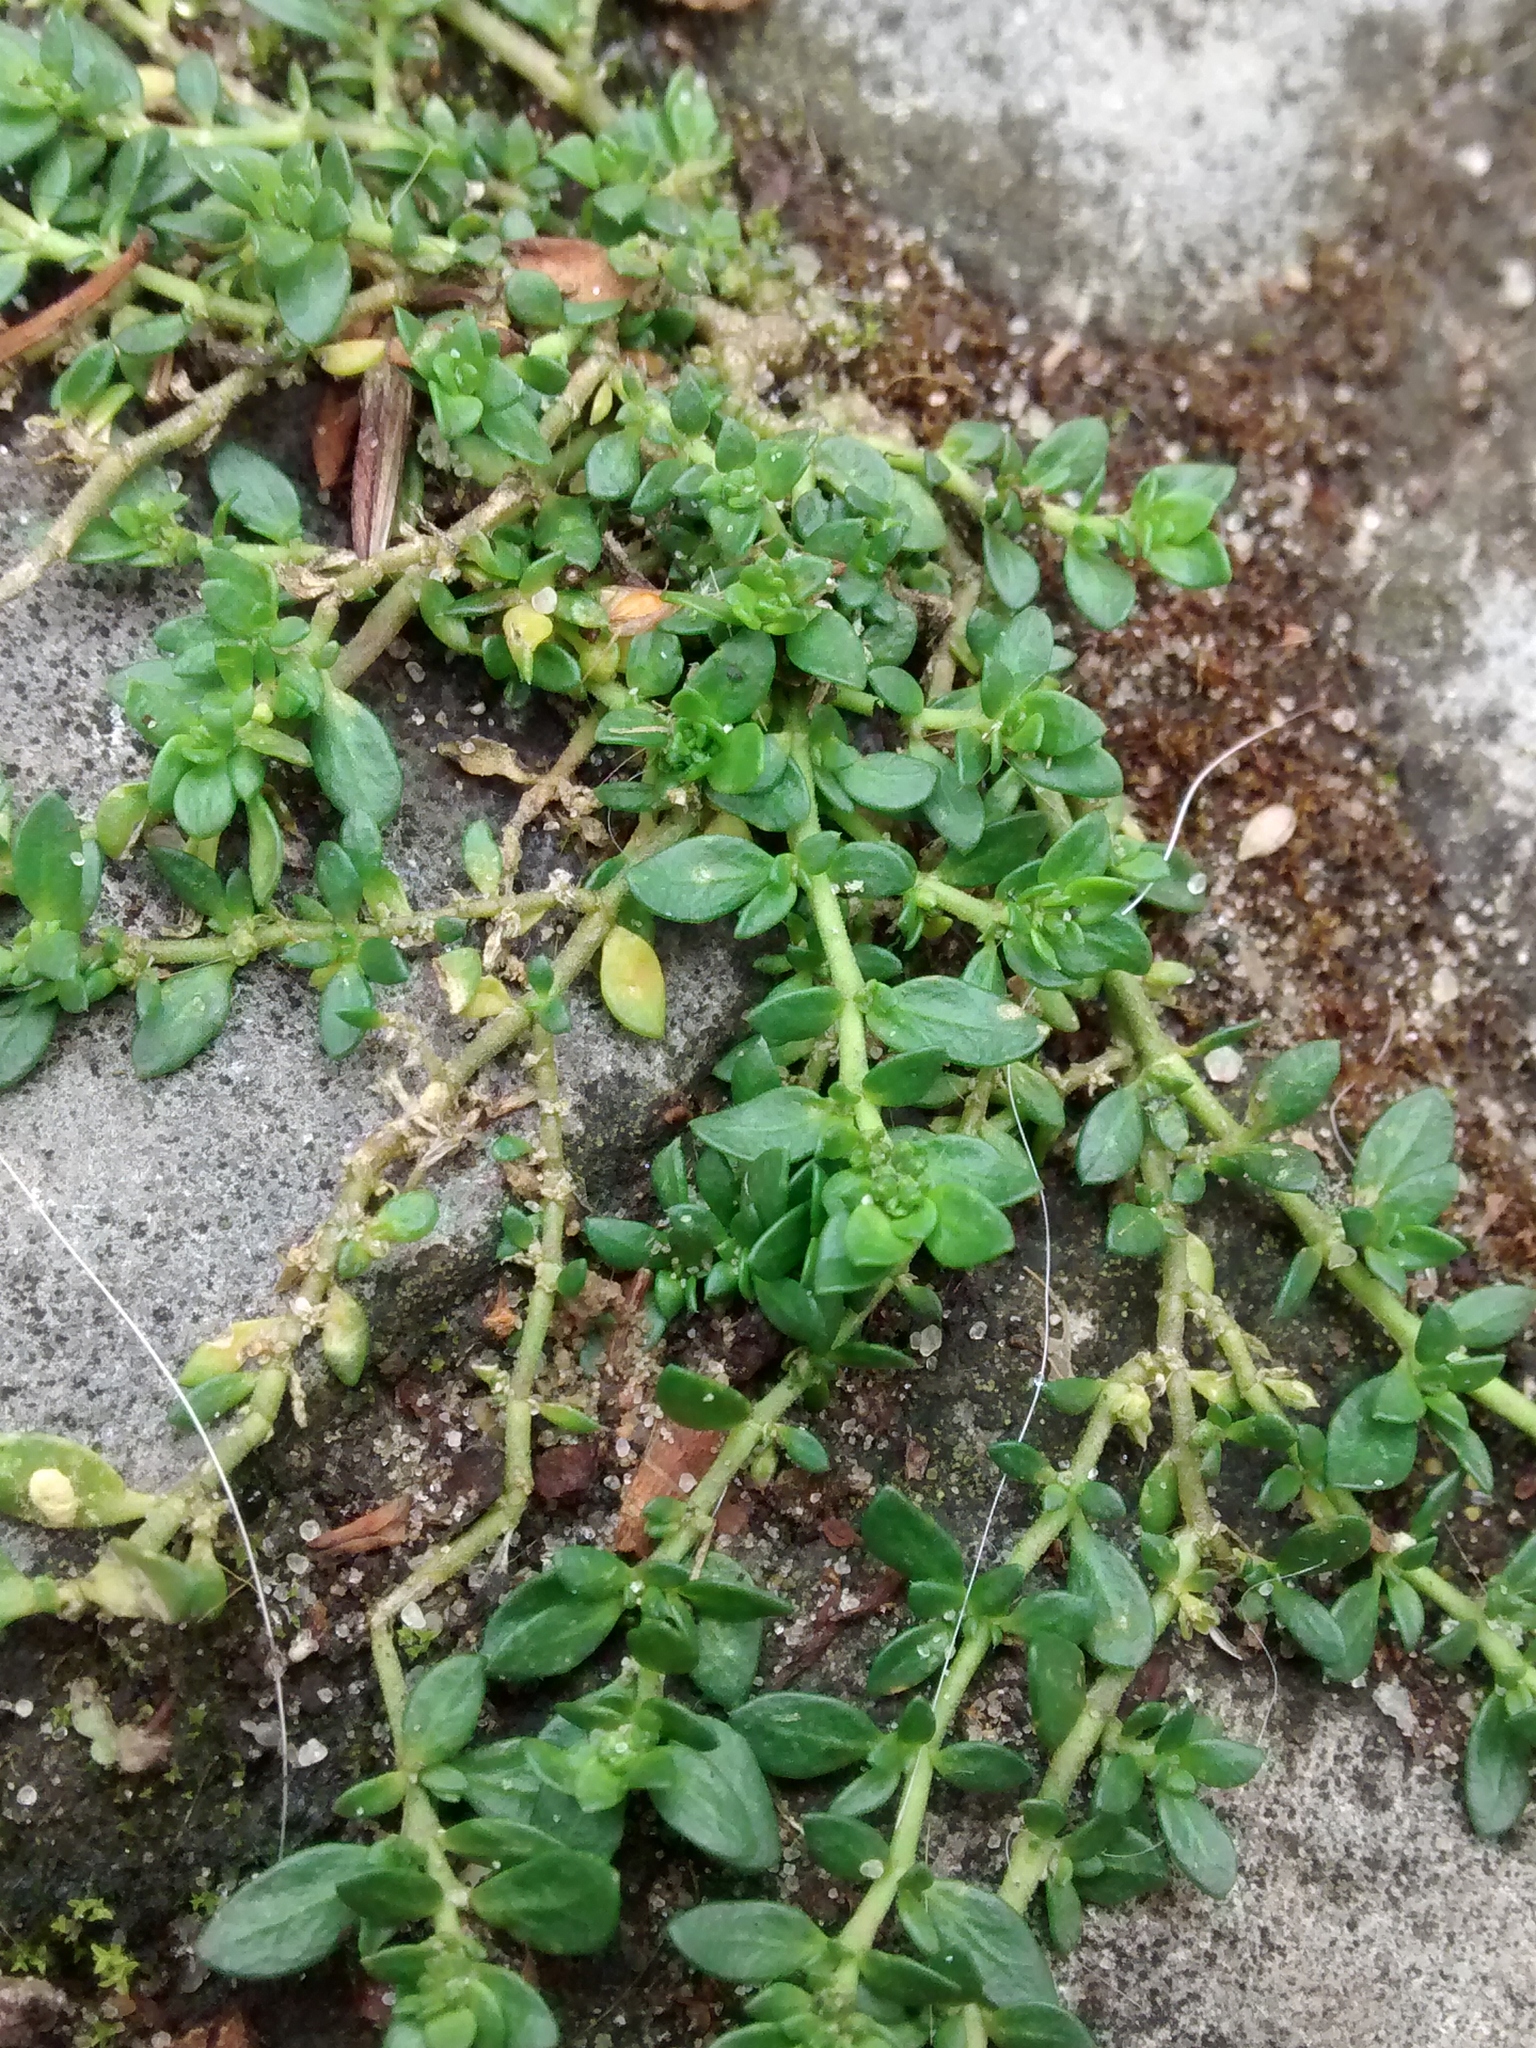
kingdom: Plantae
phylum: Tracheophyta
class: Magnoliopsida
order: Caryophyllales
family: Caryophyllaceae
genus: Herniaria
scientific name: Herniaria glabra
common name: Smooth rupturewort
